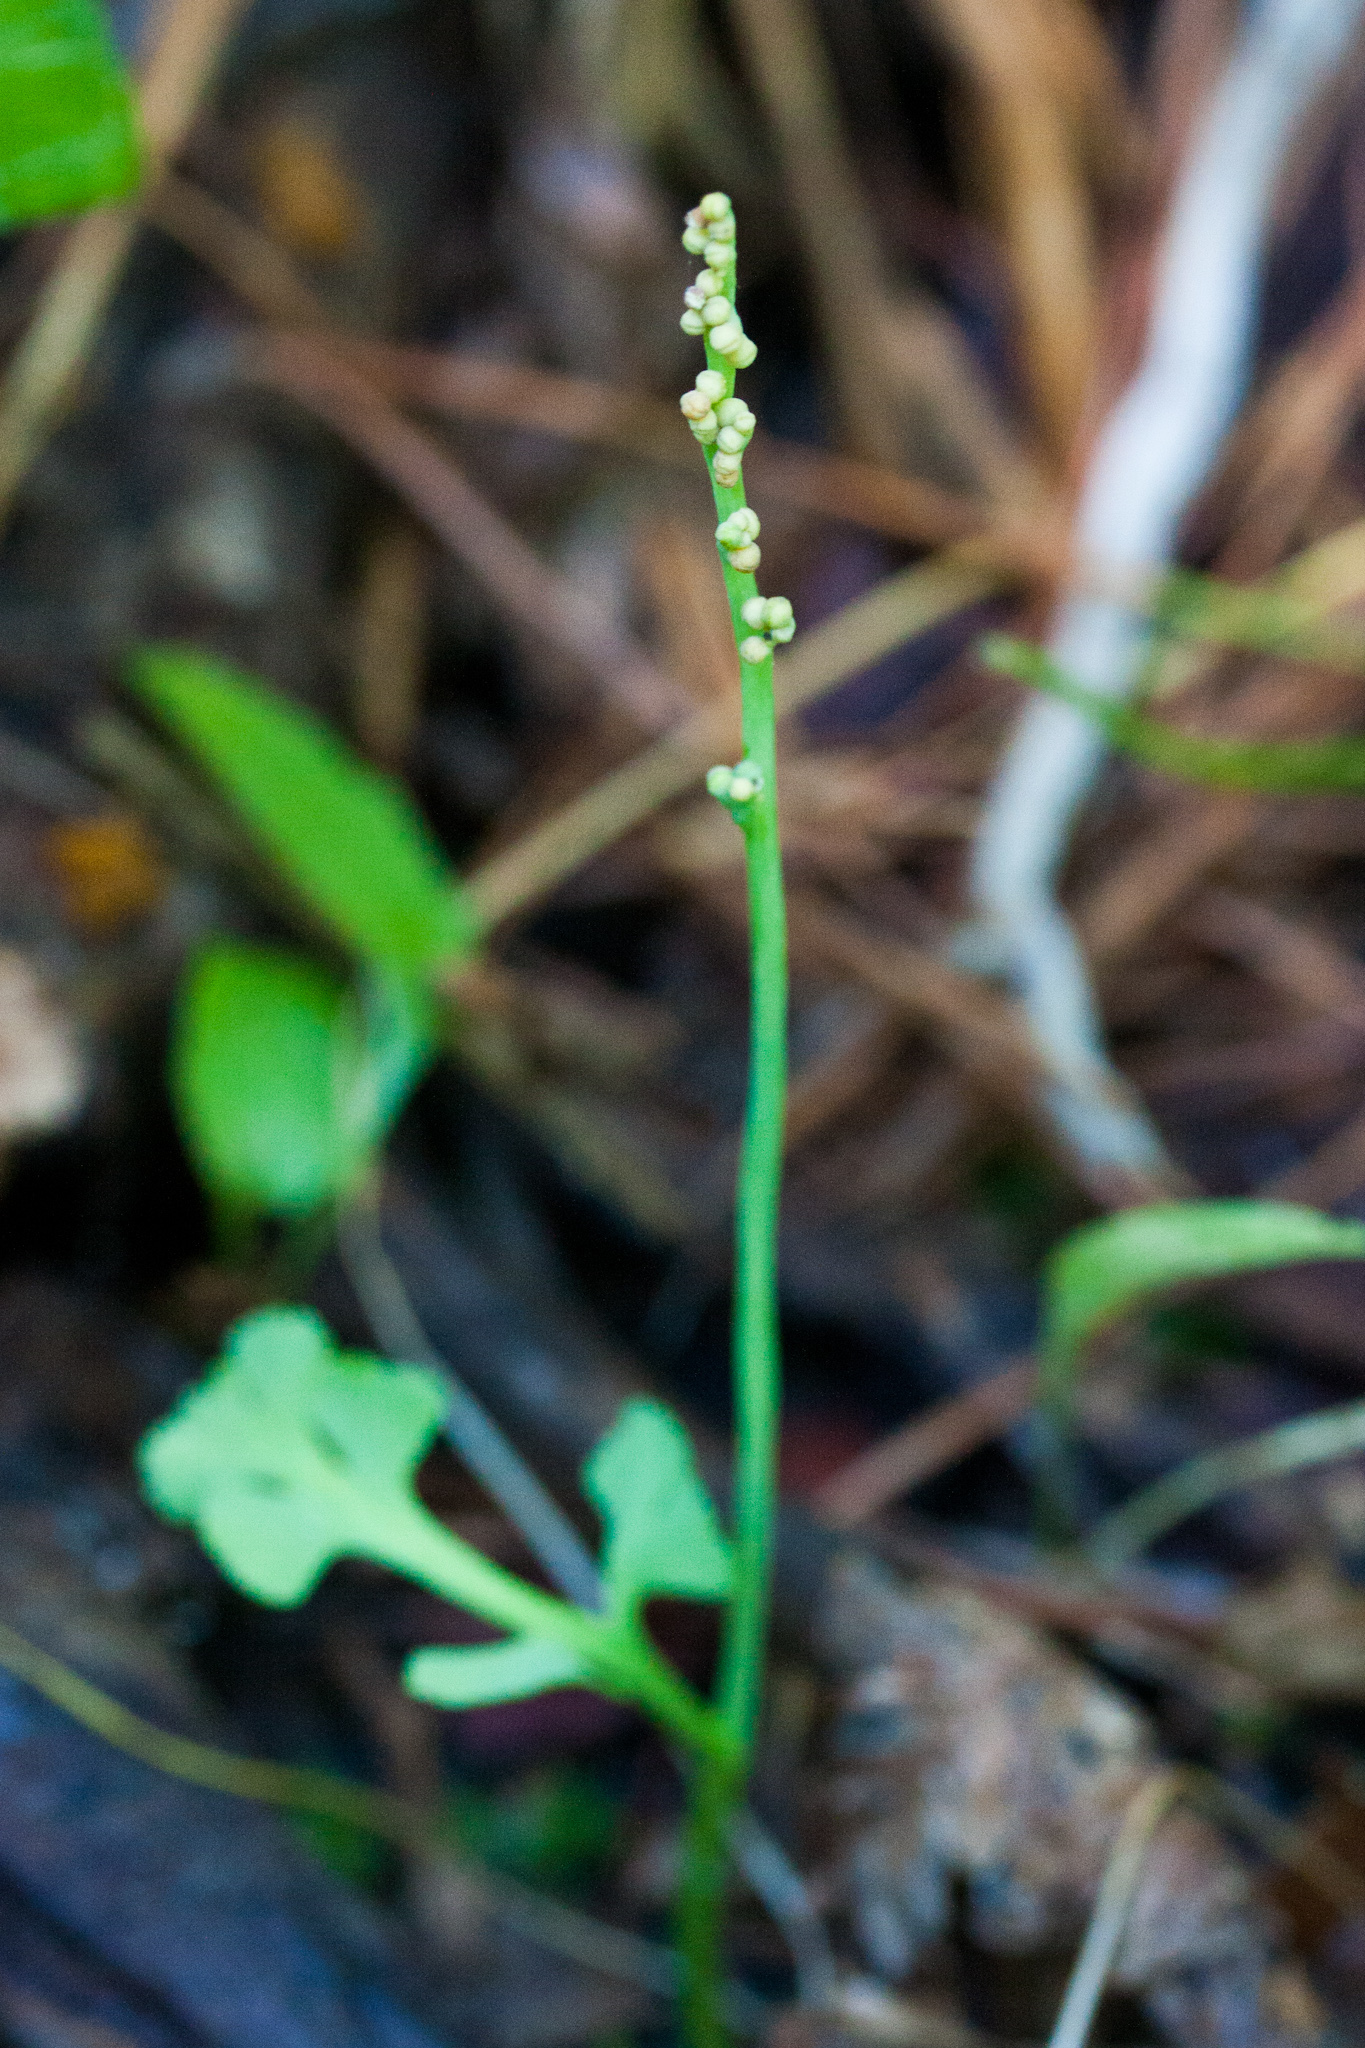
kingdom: Plantae
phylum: Tracheophyta
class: Polypodiopsida
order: Ophioglossales
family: Ophioglossaceae
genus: Botrychium
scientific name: Botrychium simplex
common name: Least moonwort
